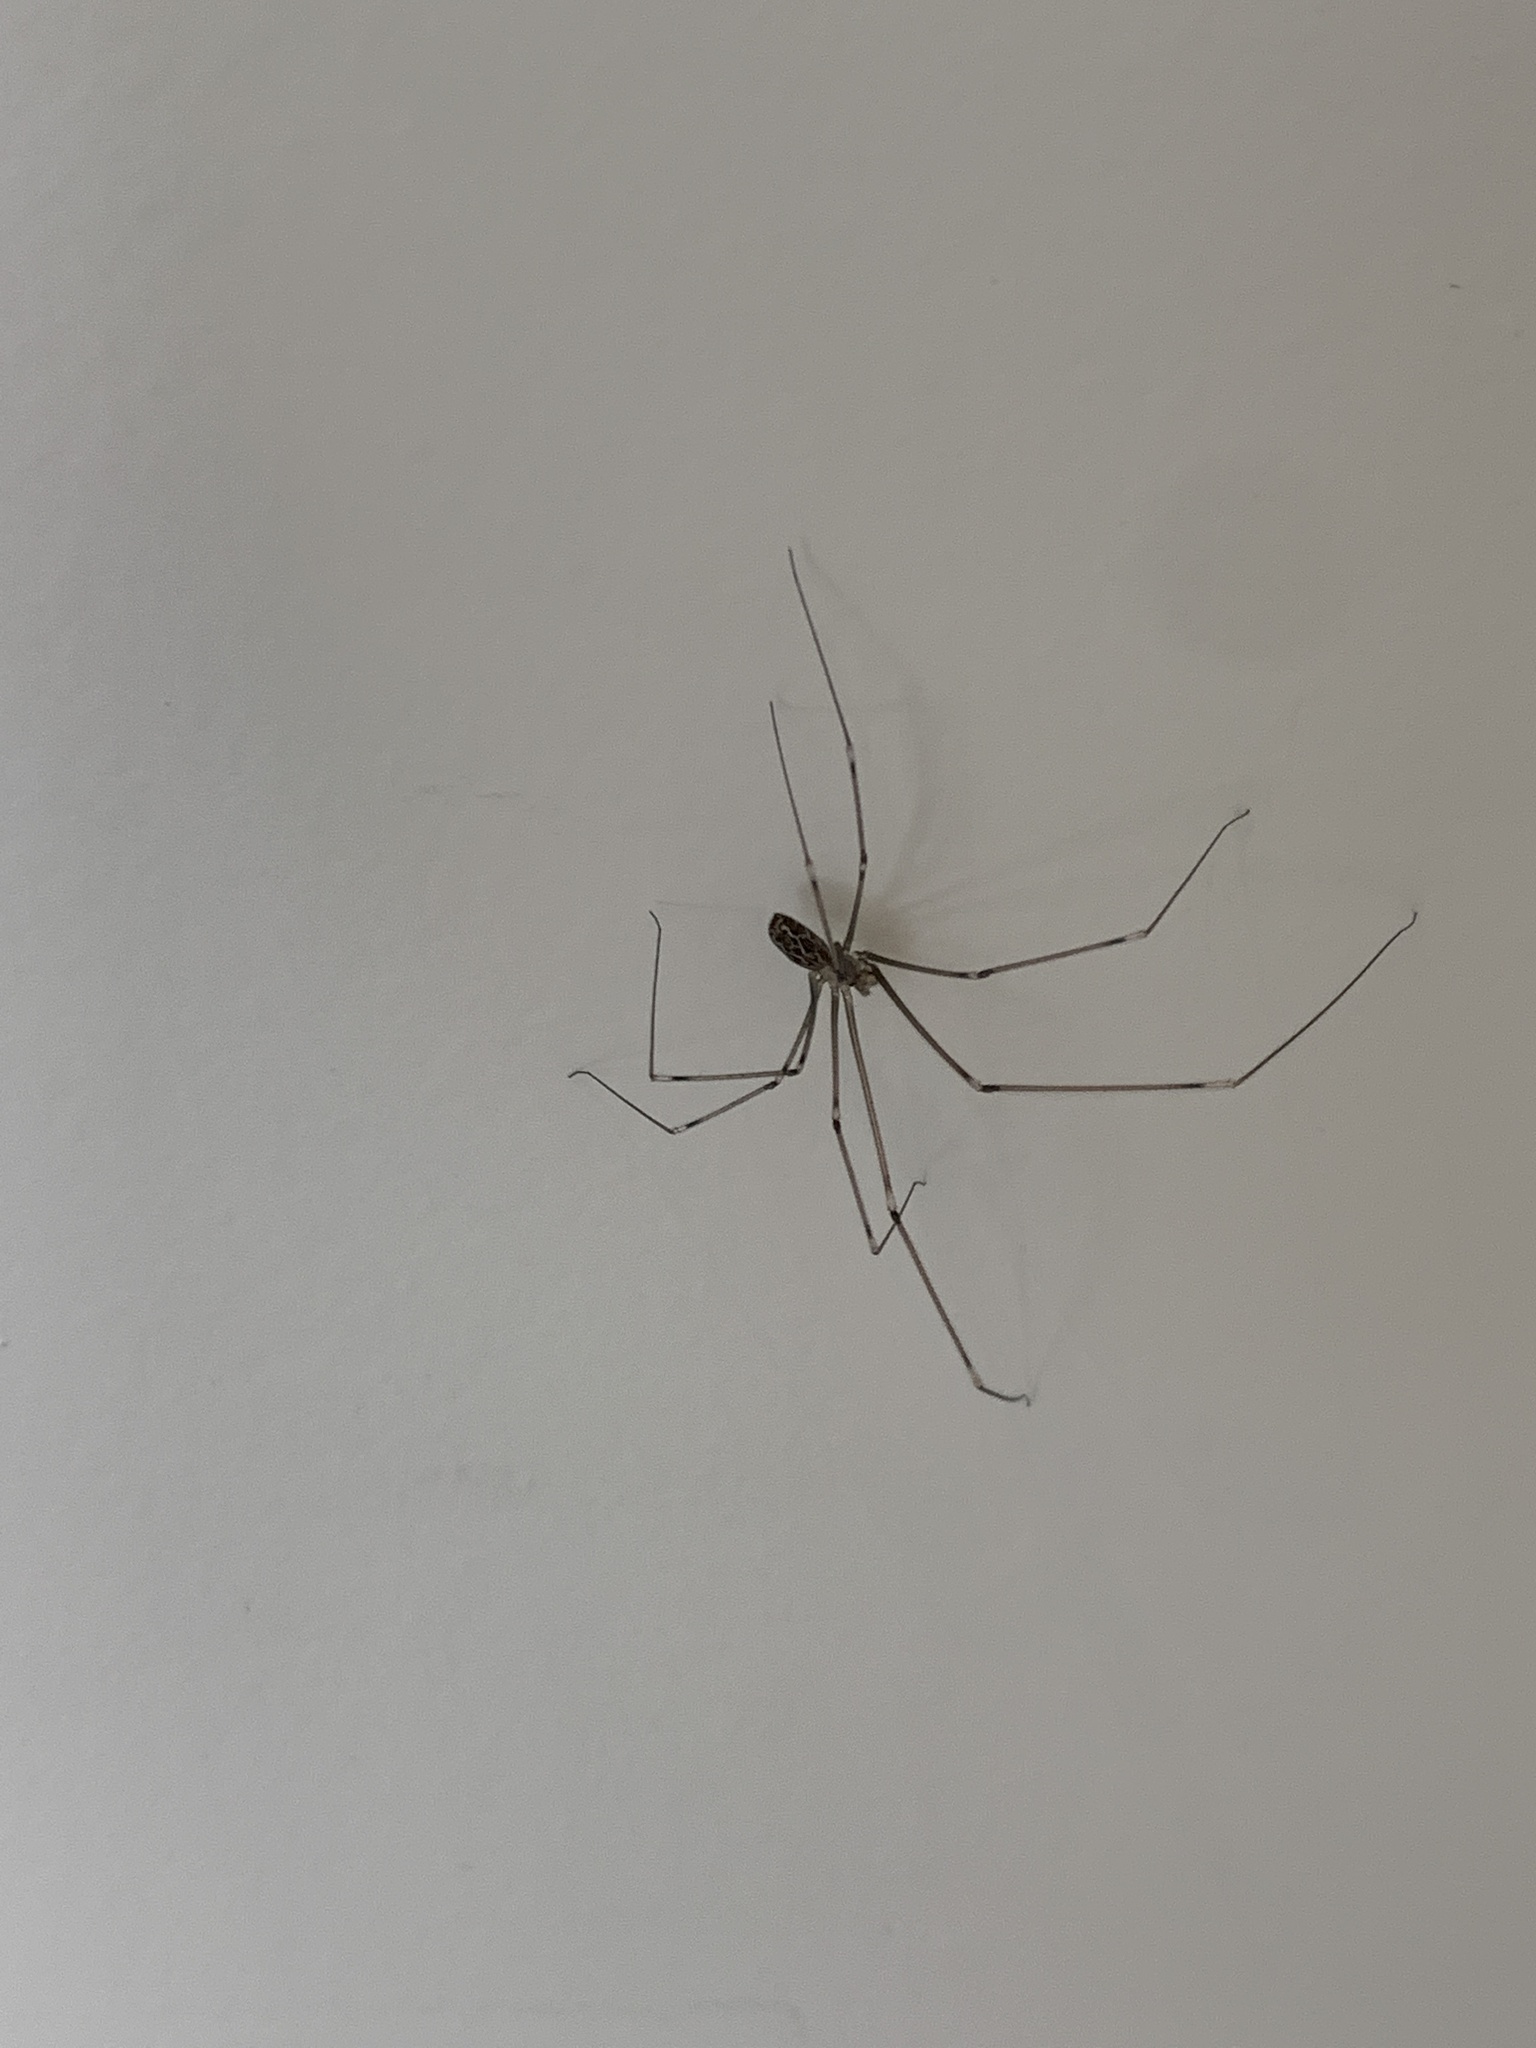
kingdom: Animalia
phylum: Arthropoda
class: Arachnida
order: Araneae
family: Pholcidae
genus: Holocnemus
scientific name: Holocnemus pluchei
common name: Marbled cellar spider
